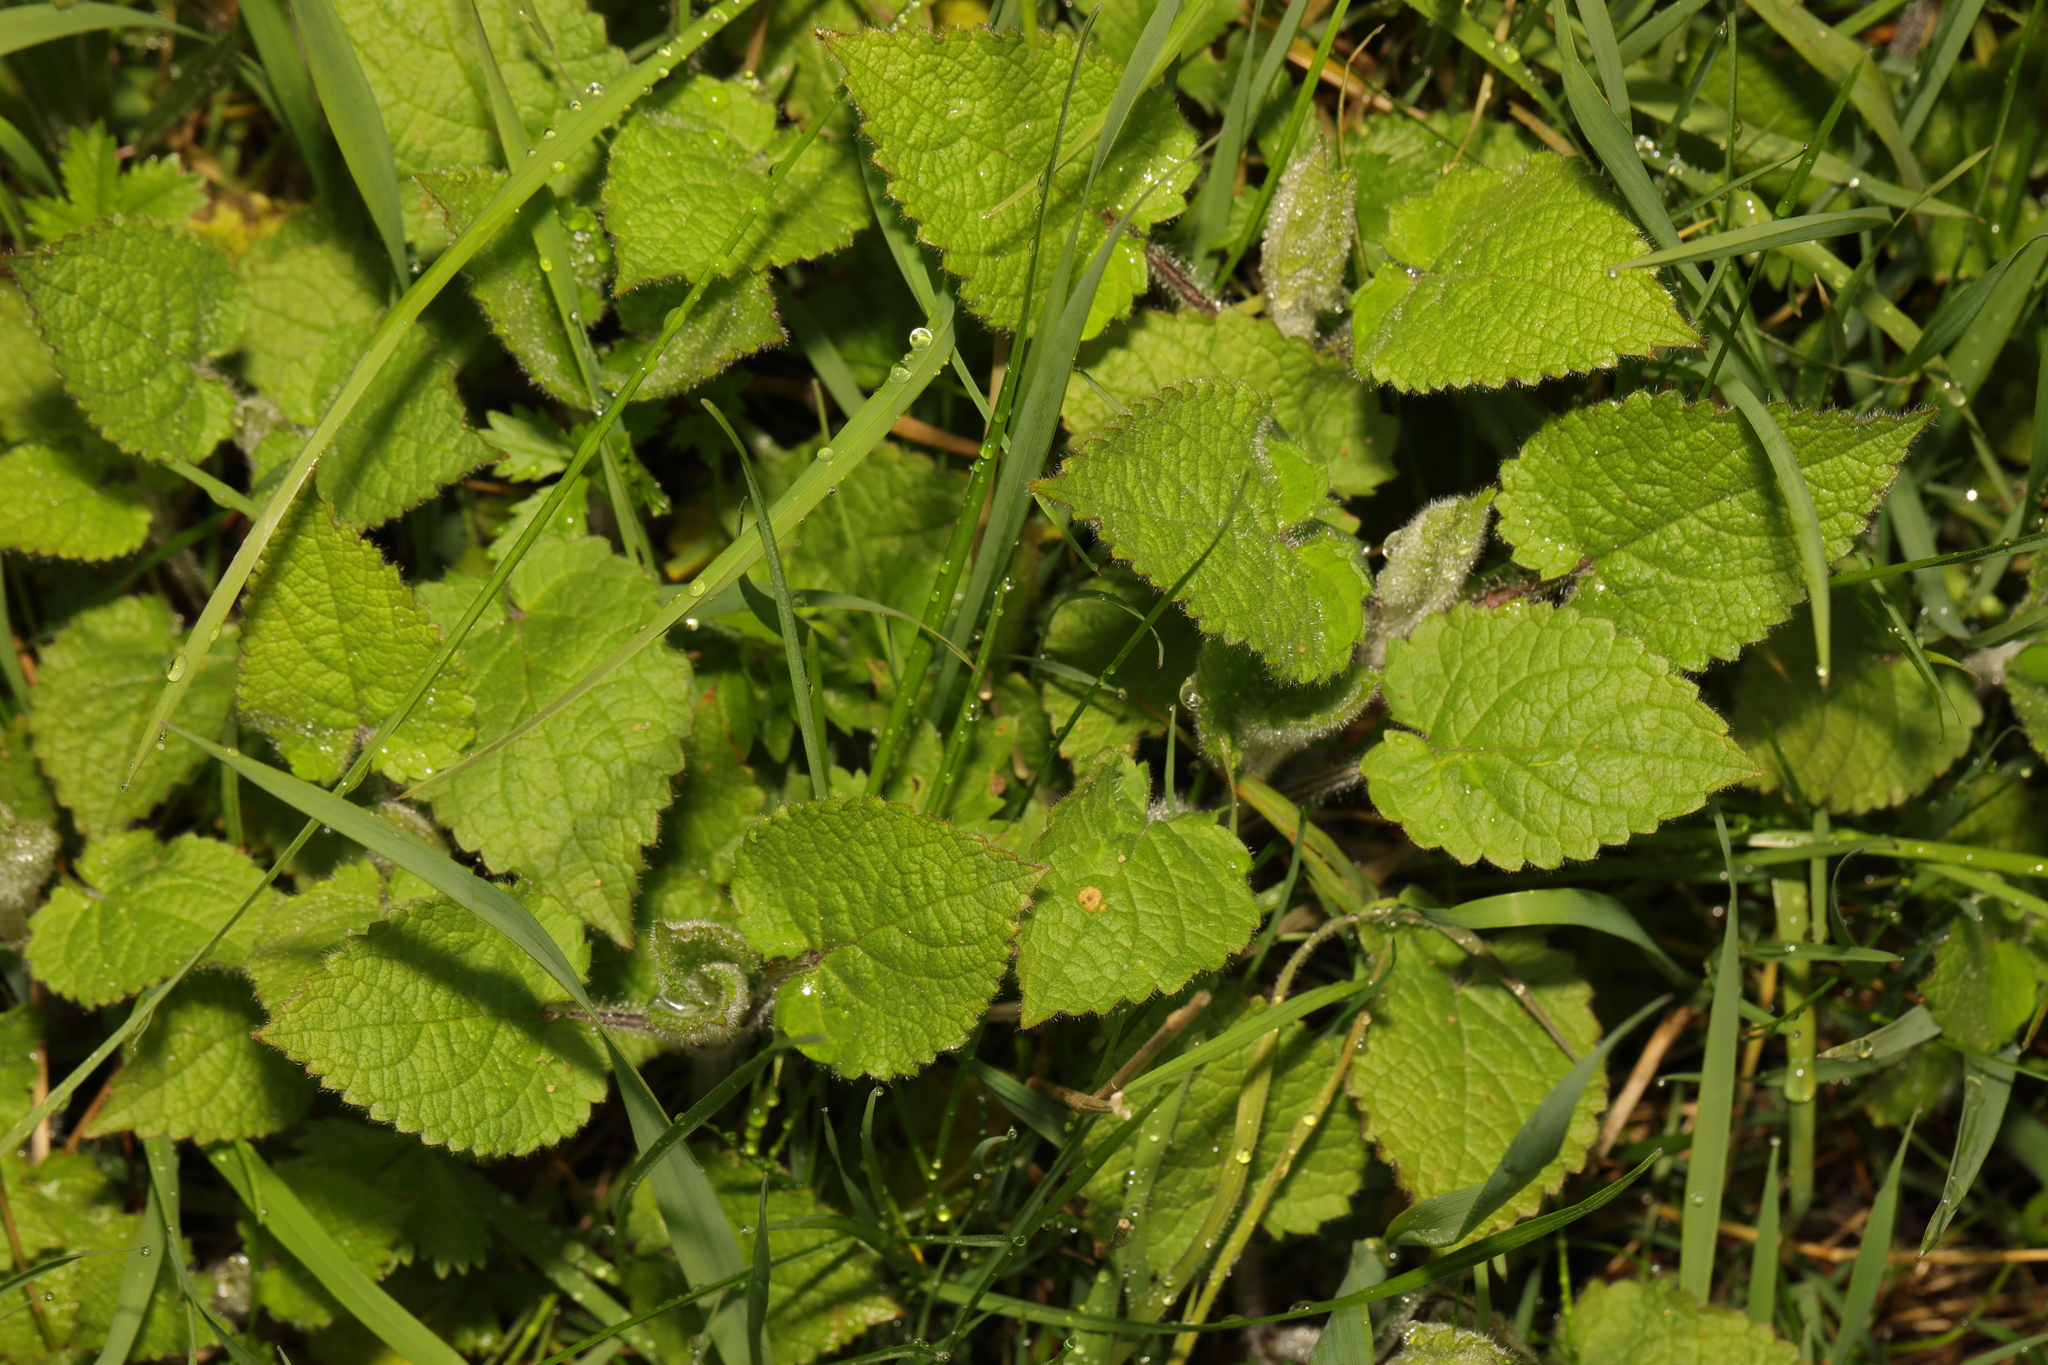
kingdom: Plantae
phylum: Tracheophyta
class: Magnoliopsida
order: Lamiales
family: Lamiaceae
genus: Stachys
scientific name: Stachys sylvatica
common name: Hedge woundwort
